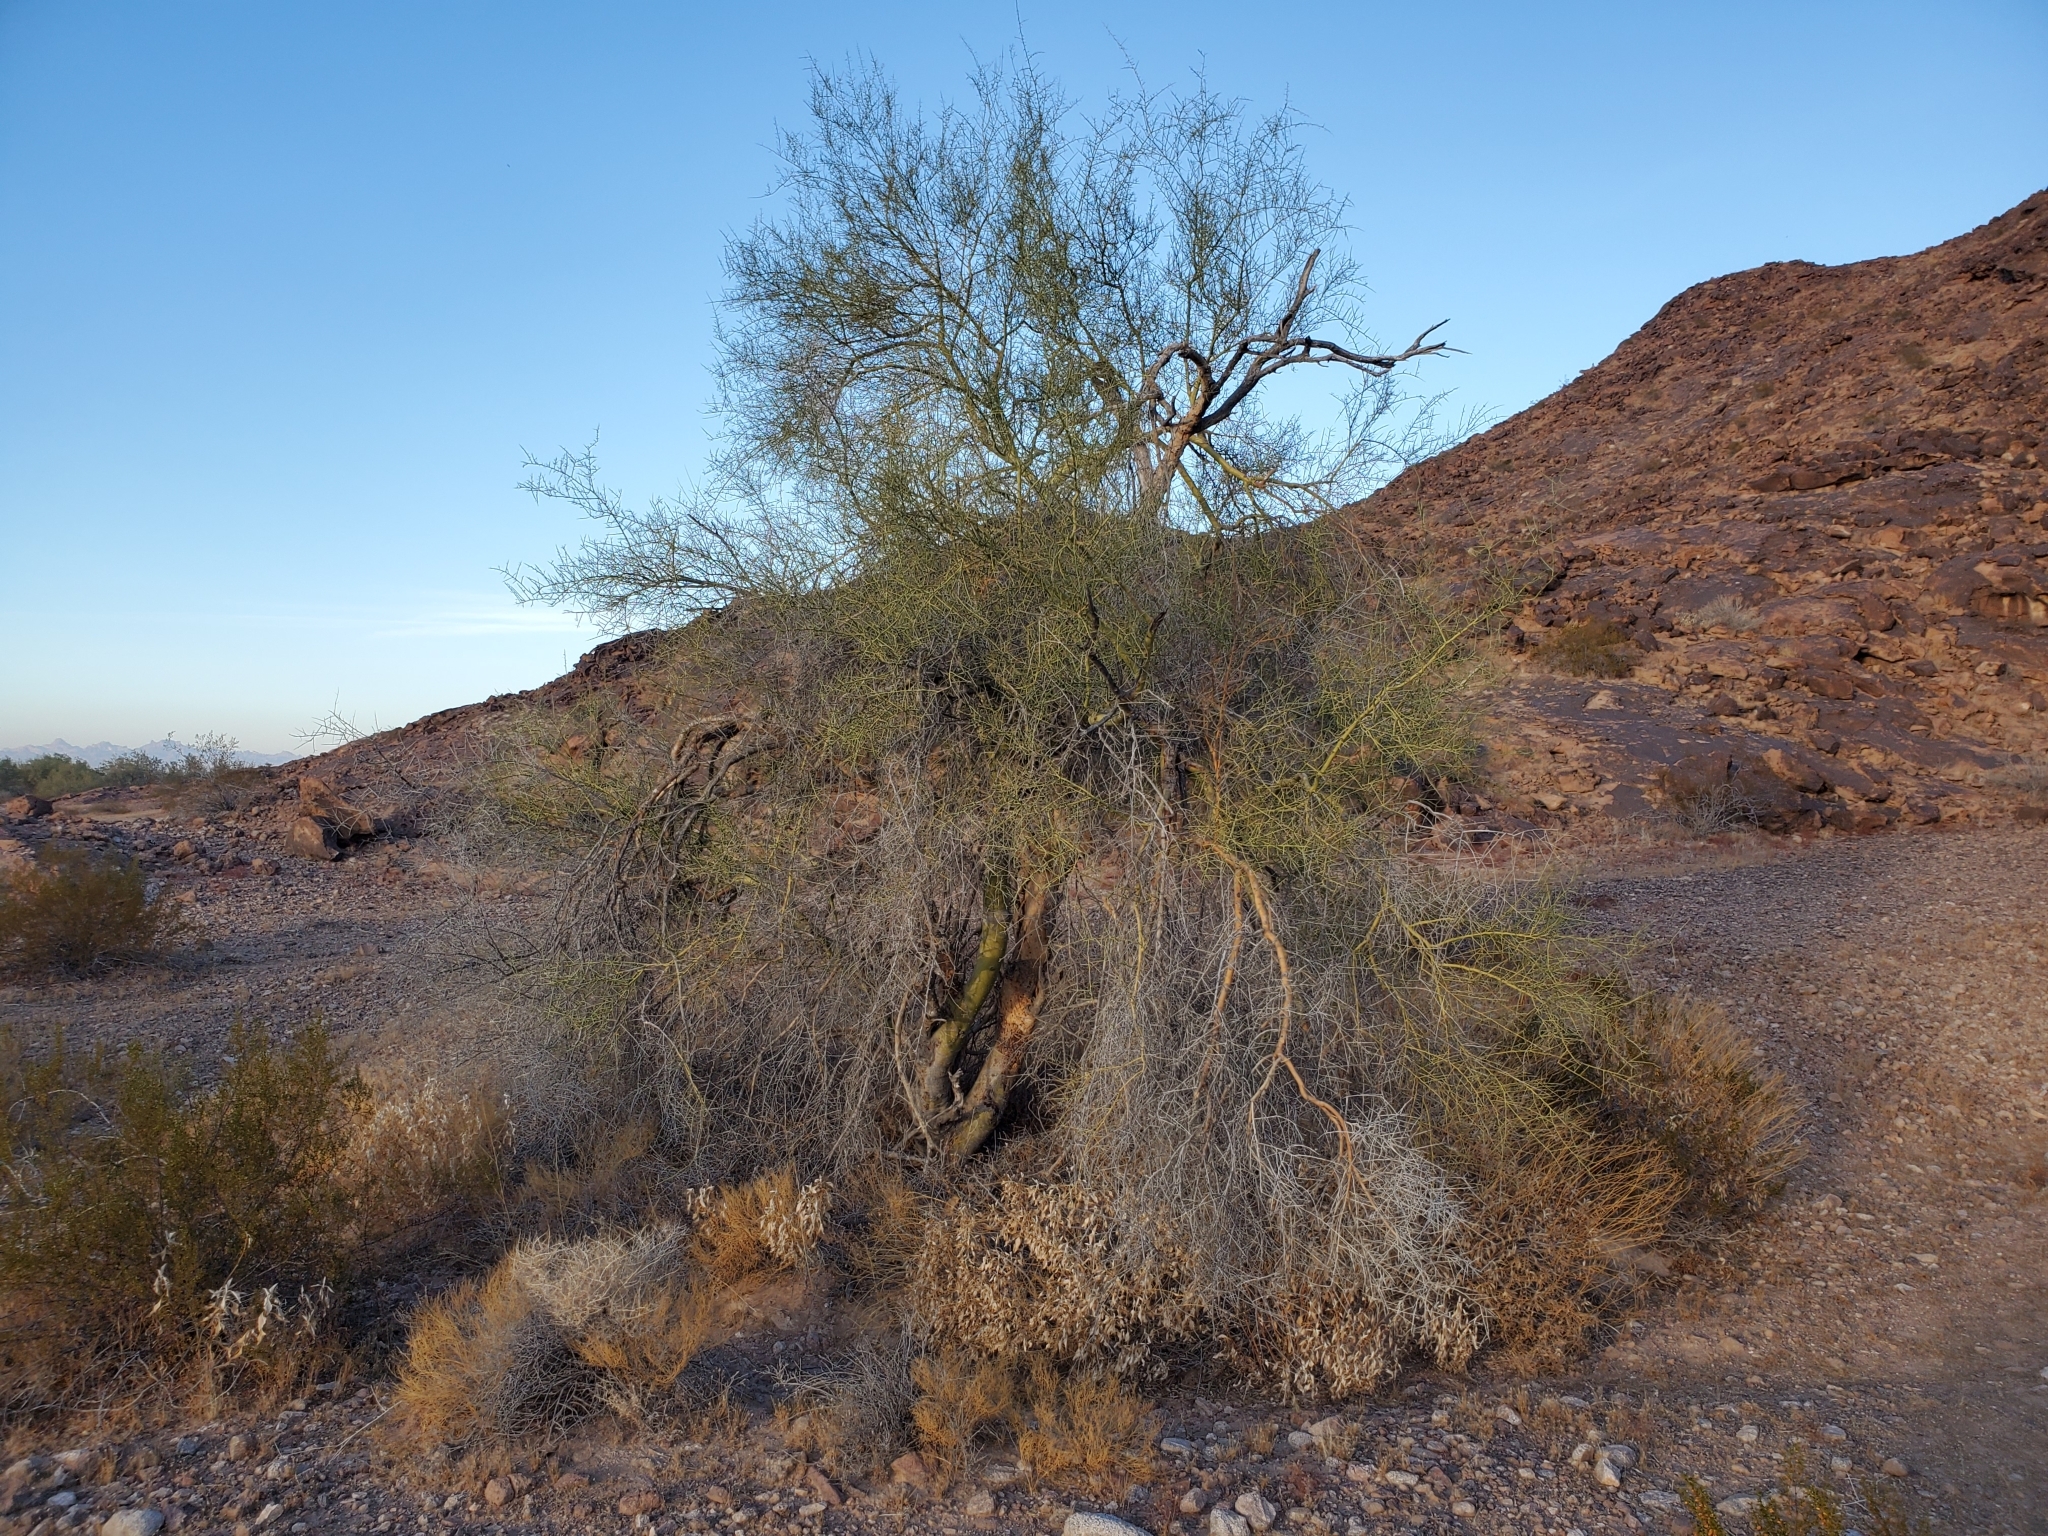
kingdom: Plantae
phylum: Tracheophyta
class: Magnoliopsida
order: Fabales
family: Fabaceae
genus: Parkinsonia
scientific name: Parkinsonia microphylla
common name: Yellow paloverde
